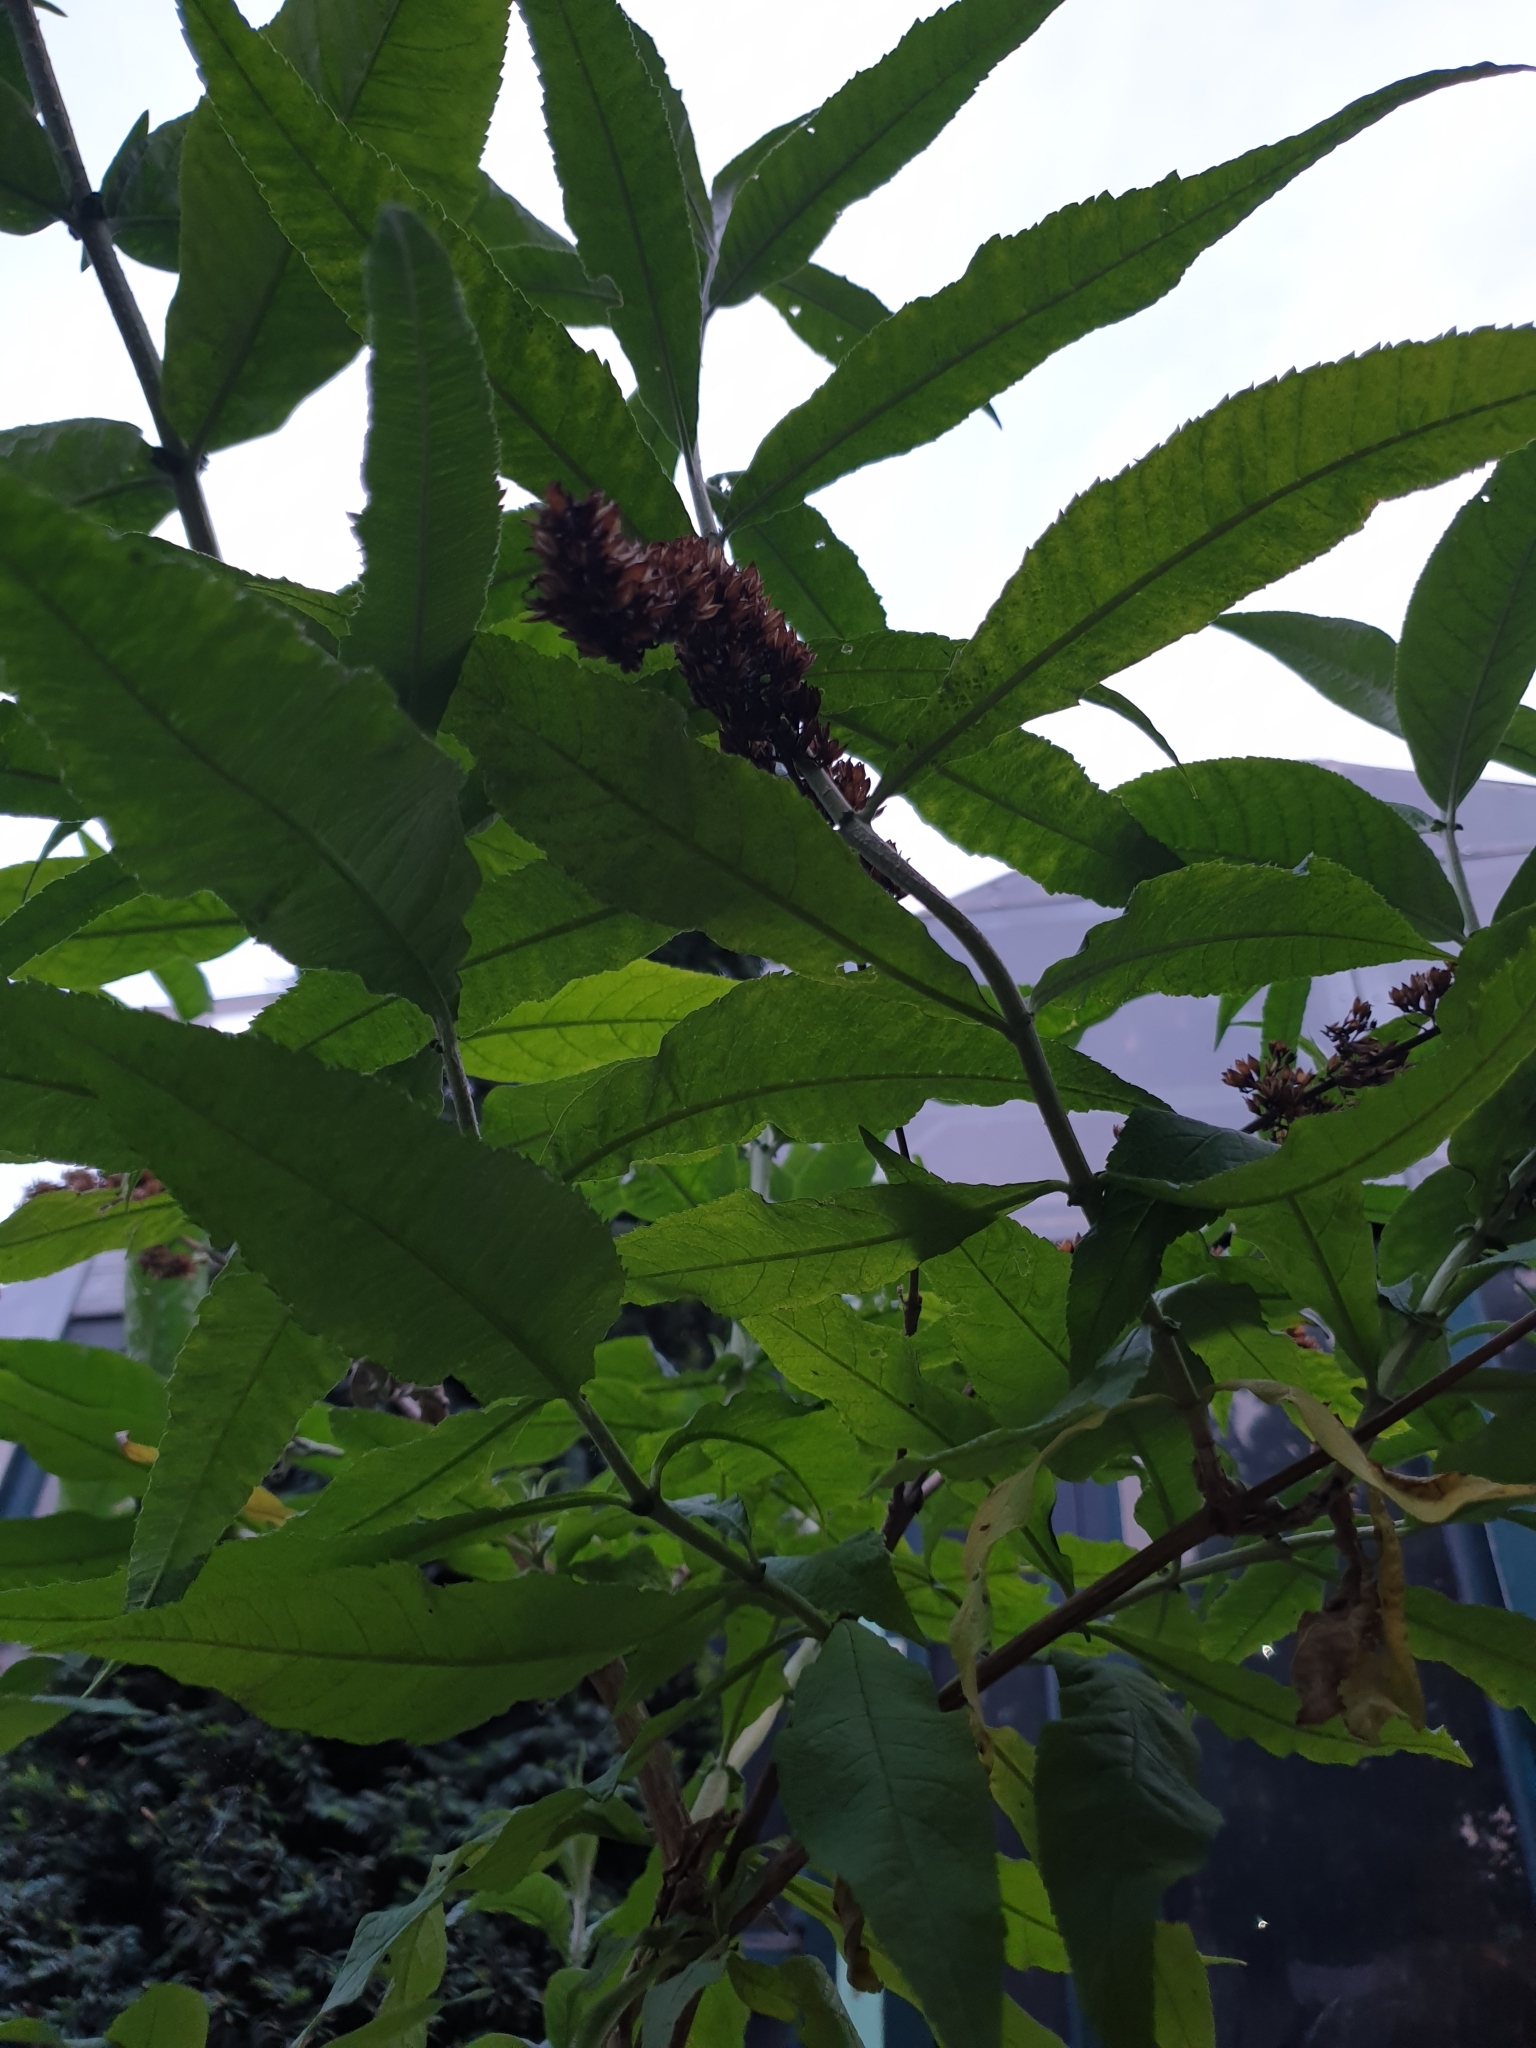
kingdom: Plantae
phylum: Tracheophyta
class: Magnoliopsida
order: Lamiales
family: Scrophulariaceae
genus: Buddleja
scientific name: Buddleja davidii
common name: Butterfly-bush
